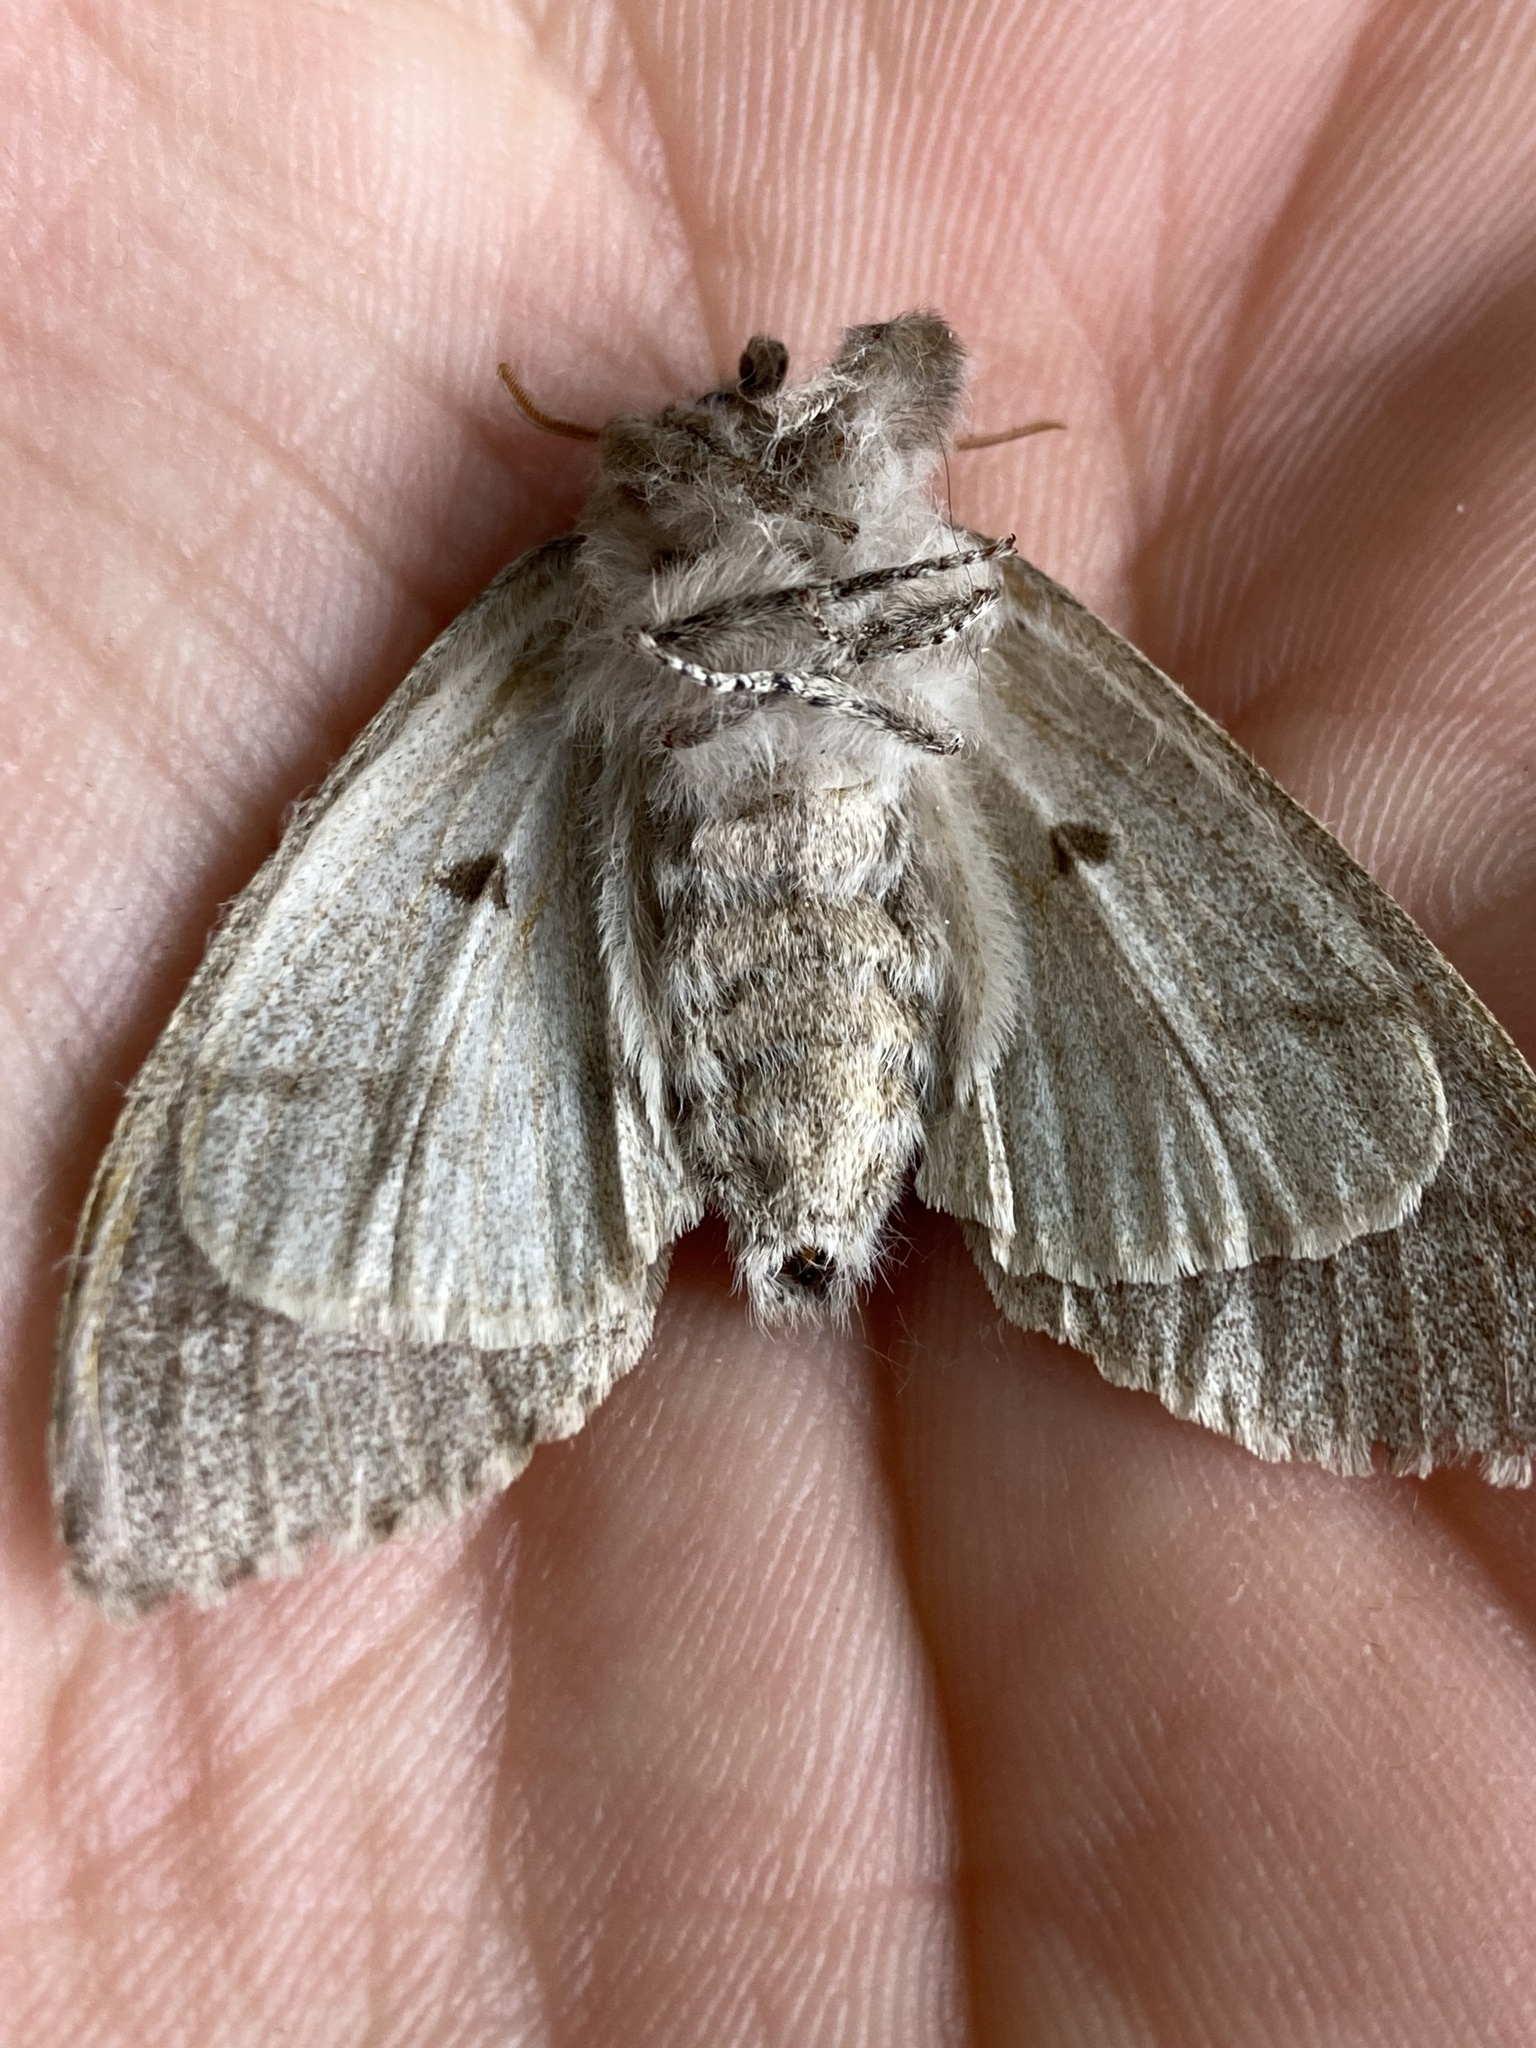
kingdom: Animalia
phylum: Arthropoda
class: Insecta
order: Lepidoptera
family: Erebidae
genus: Calliteara
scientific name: Calliteara pudibunda
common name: Pale tussock
